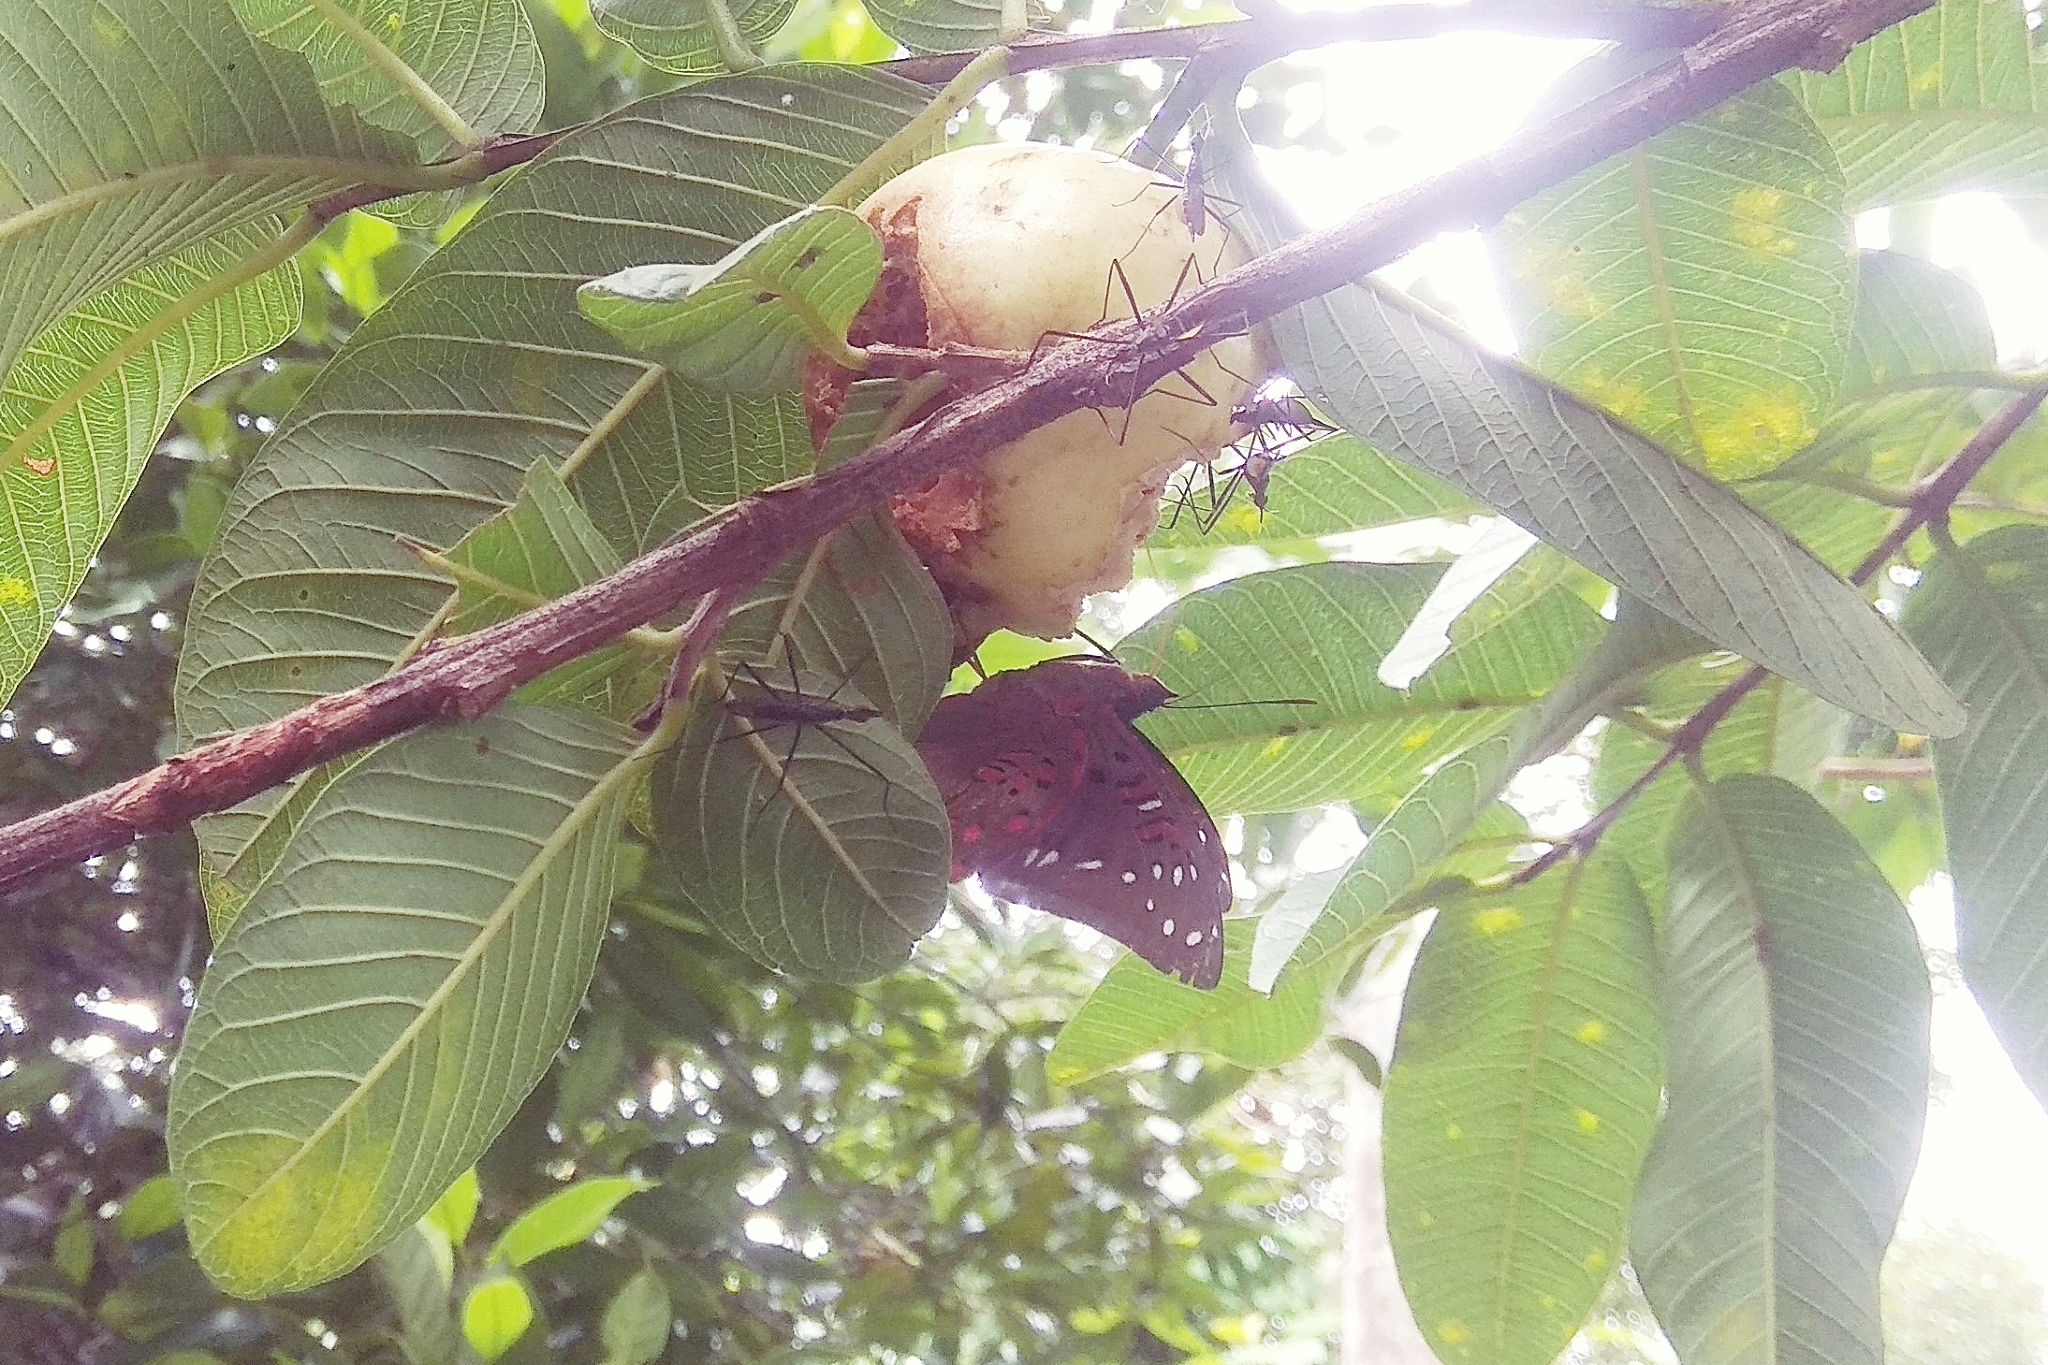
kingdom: Animalia
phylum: Arthropoda
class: Insecta
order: Lepidoptera
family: Nymphalidae
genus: Euthalia
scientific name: Euthalia lubentina
